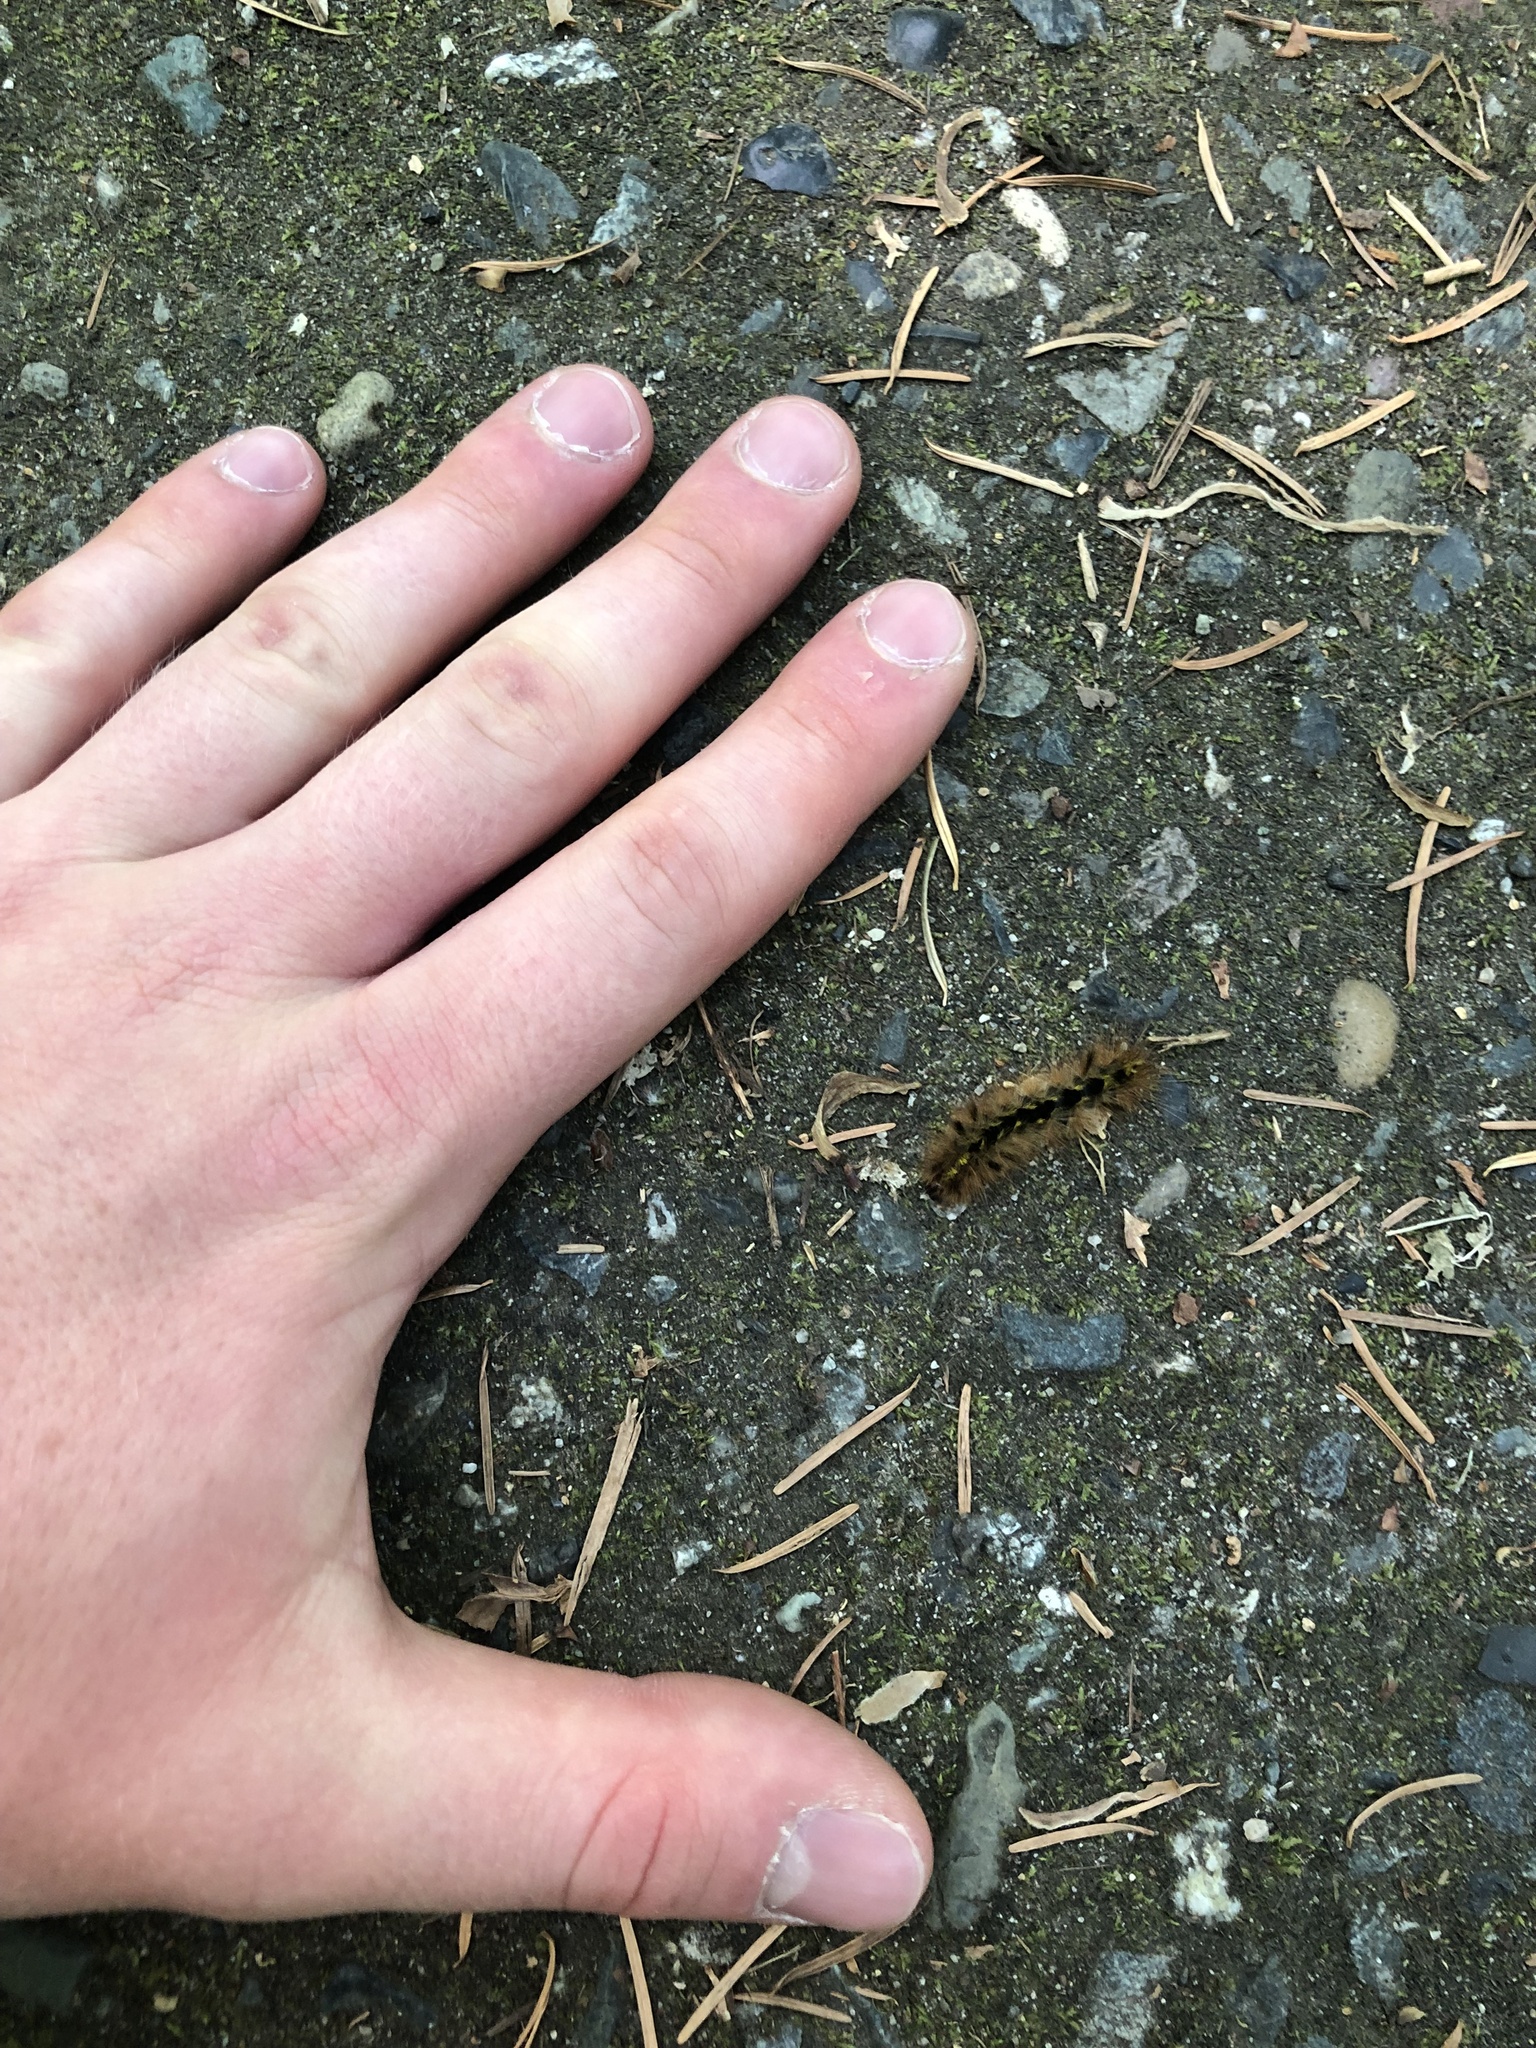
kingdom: Animalia
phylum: Arthropoda
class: Insecta
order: Lepidoptera
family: Erebidae
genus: Lophocampa
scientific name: Lophocampa argentata
